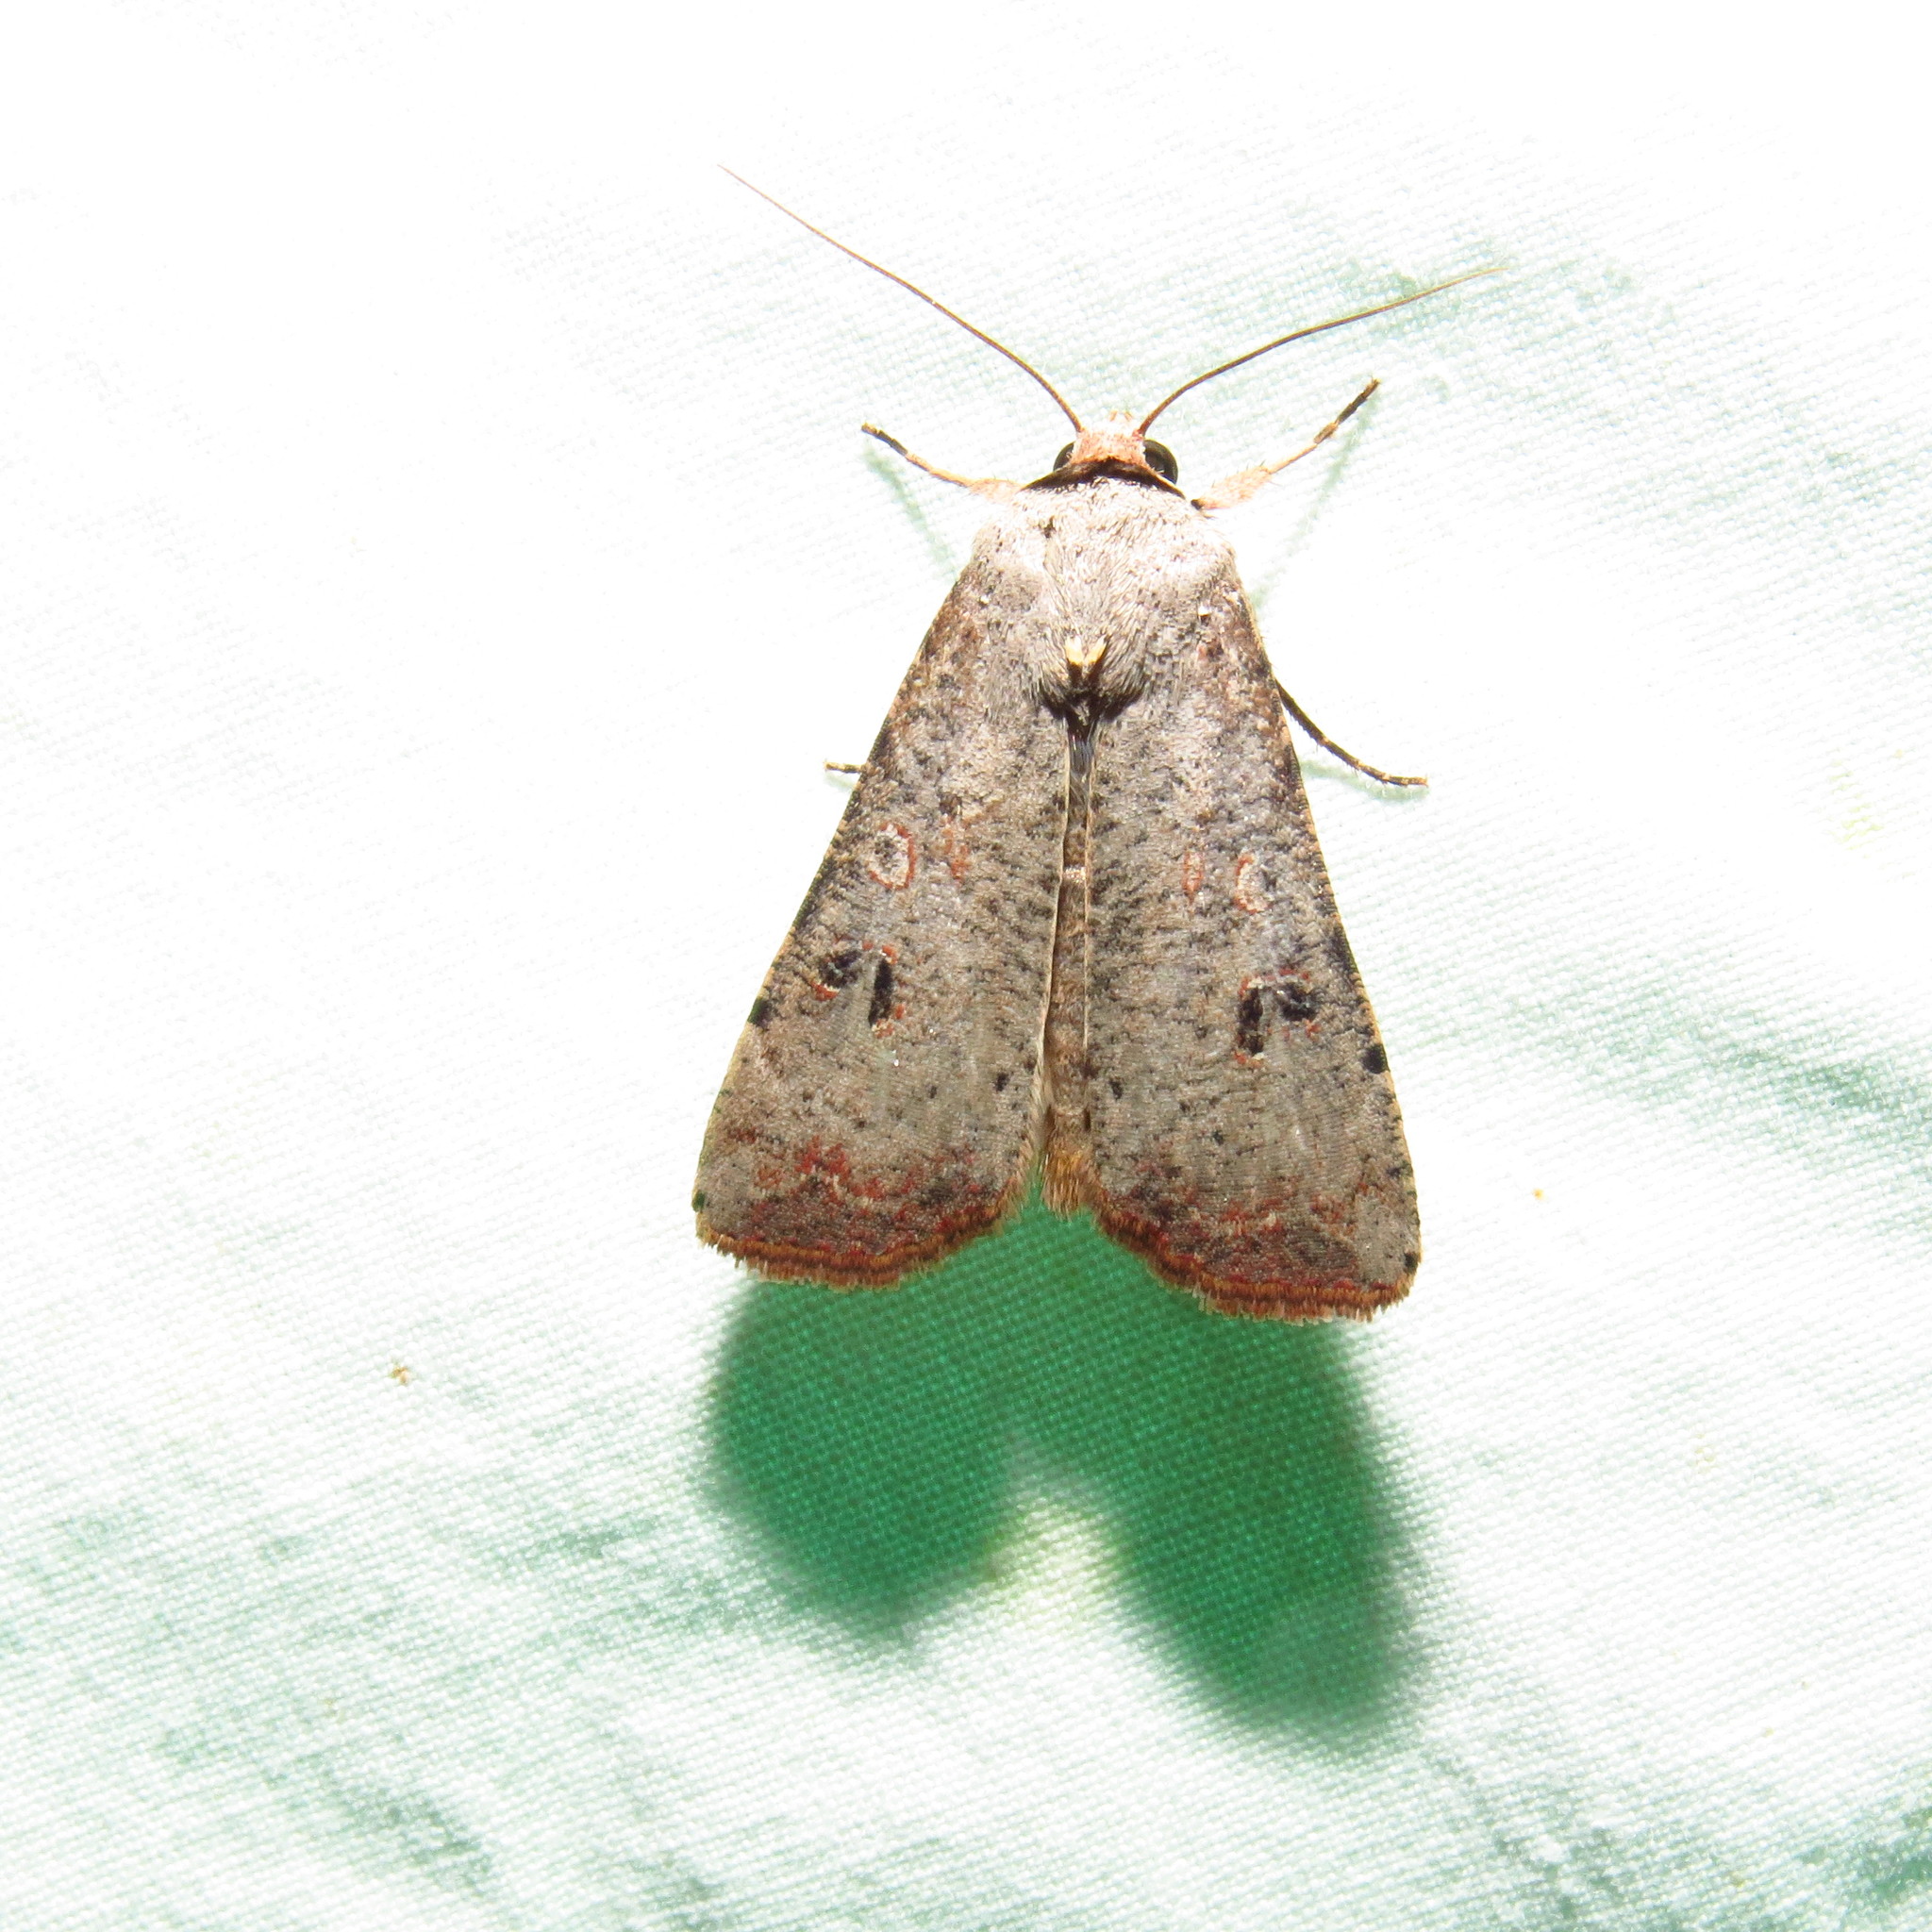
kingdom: Animalia
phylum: Arthropoda
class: Insecta
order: Lepidoptera
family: Noctuidae
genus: Anicla
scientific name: Anicla infecta
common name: Green cutworm
